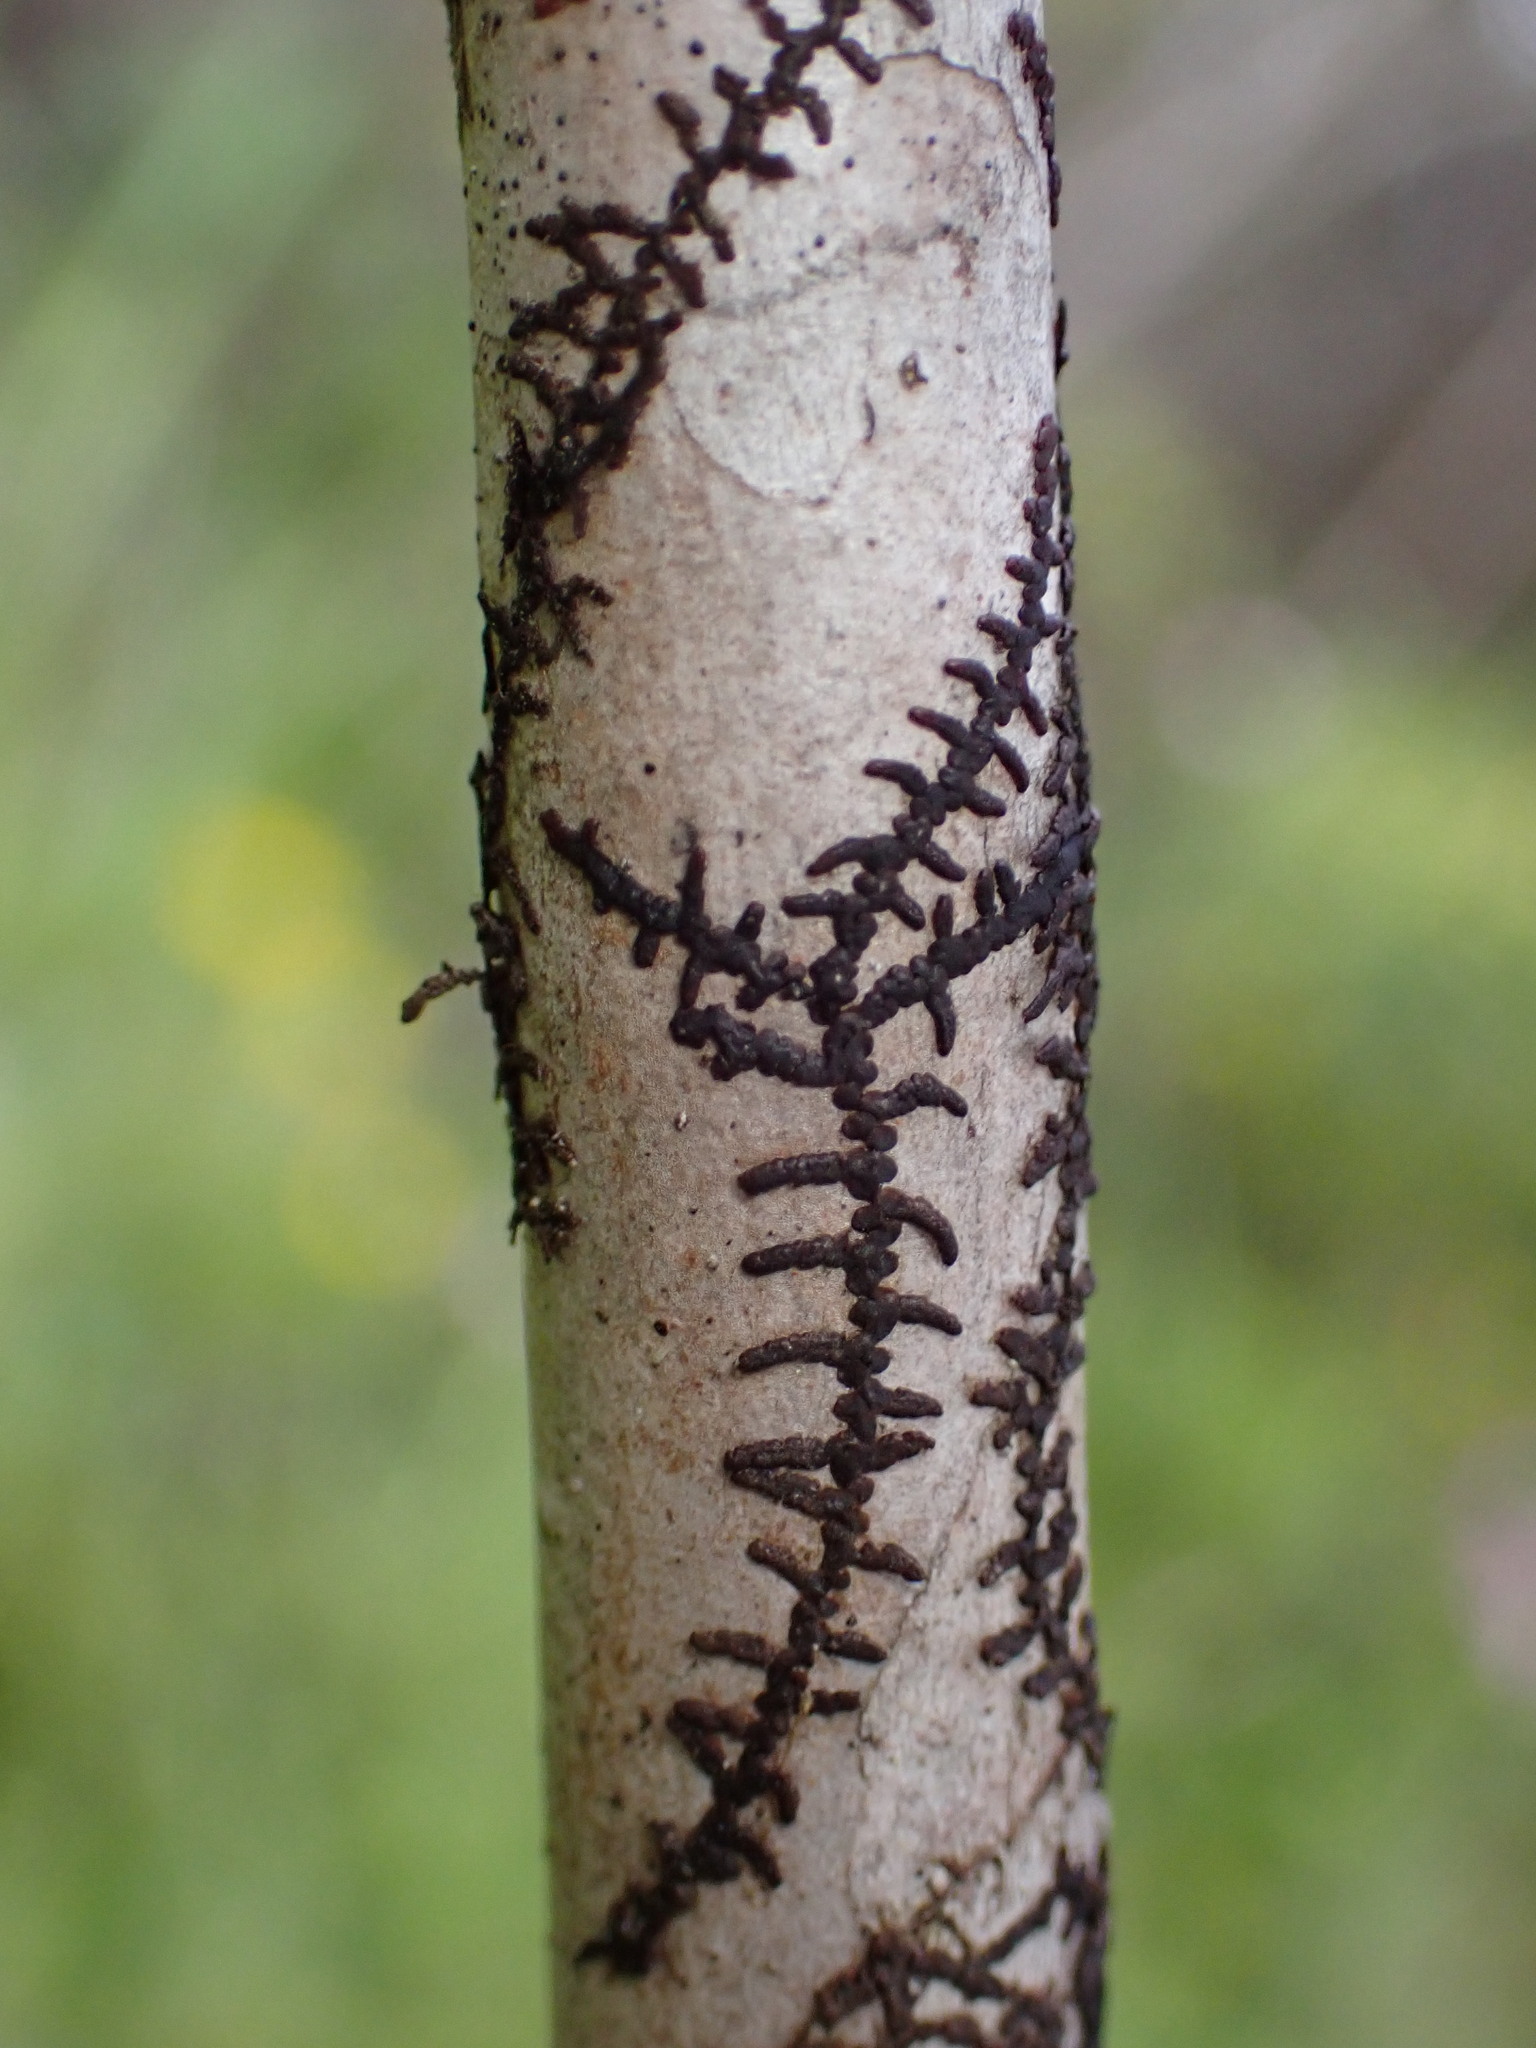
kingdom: Plantae
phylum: Marchantiophyta
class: Jungermanniopsida
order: Porellales
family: Frullaniaceae
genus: Frullania
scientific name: Frullania meyeniana
